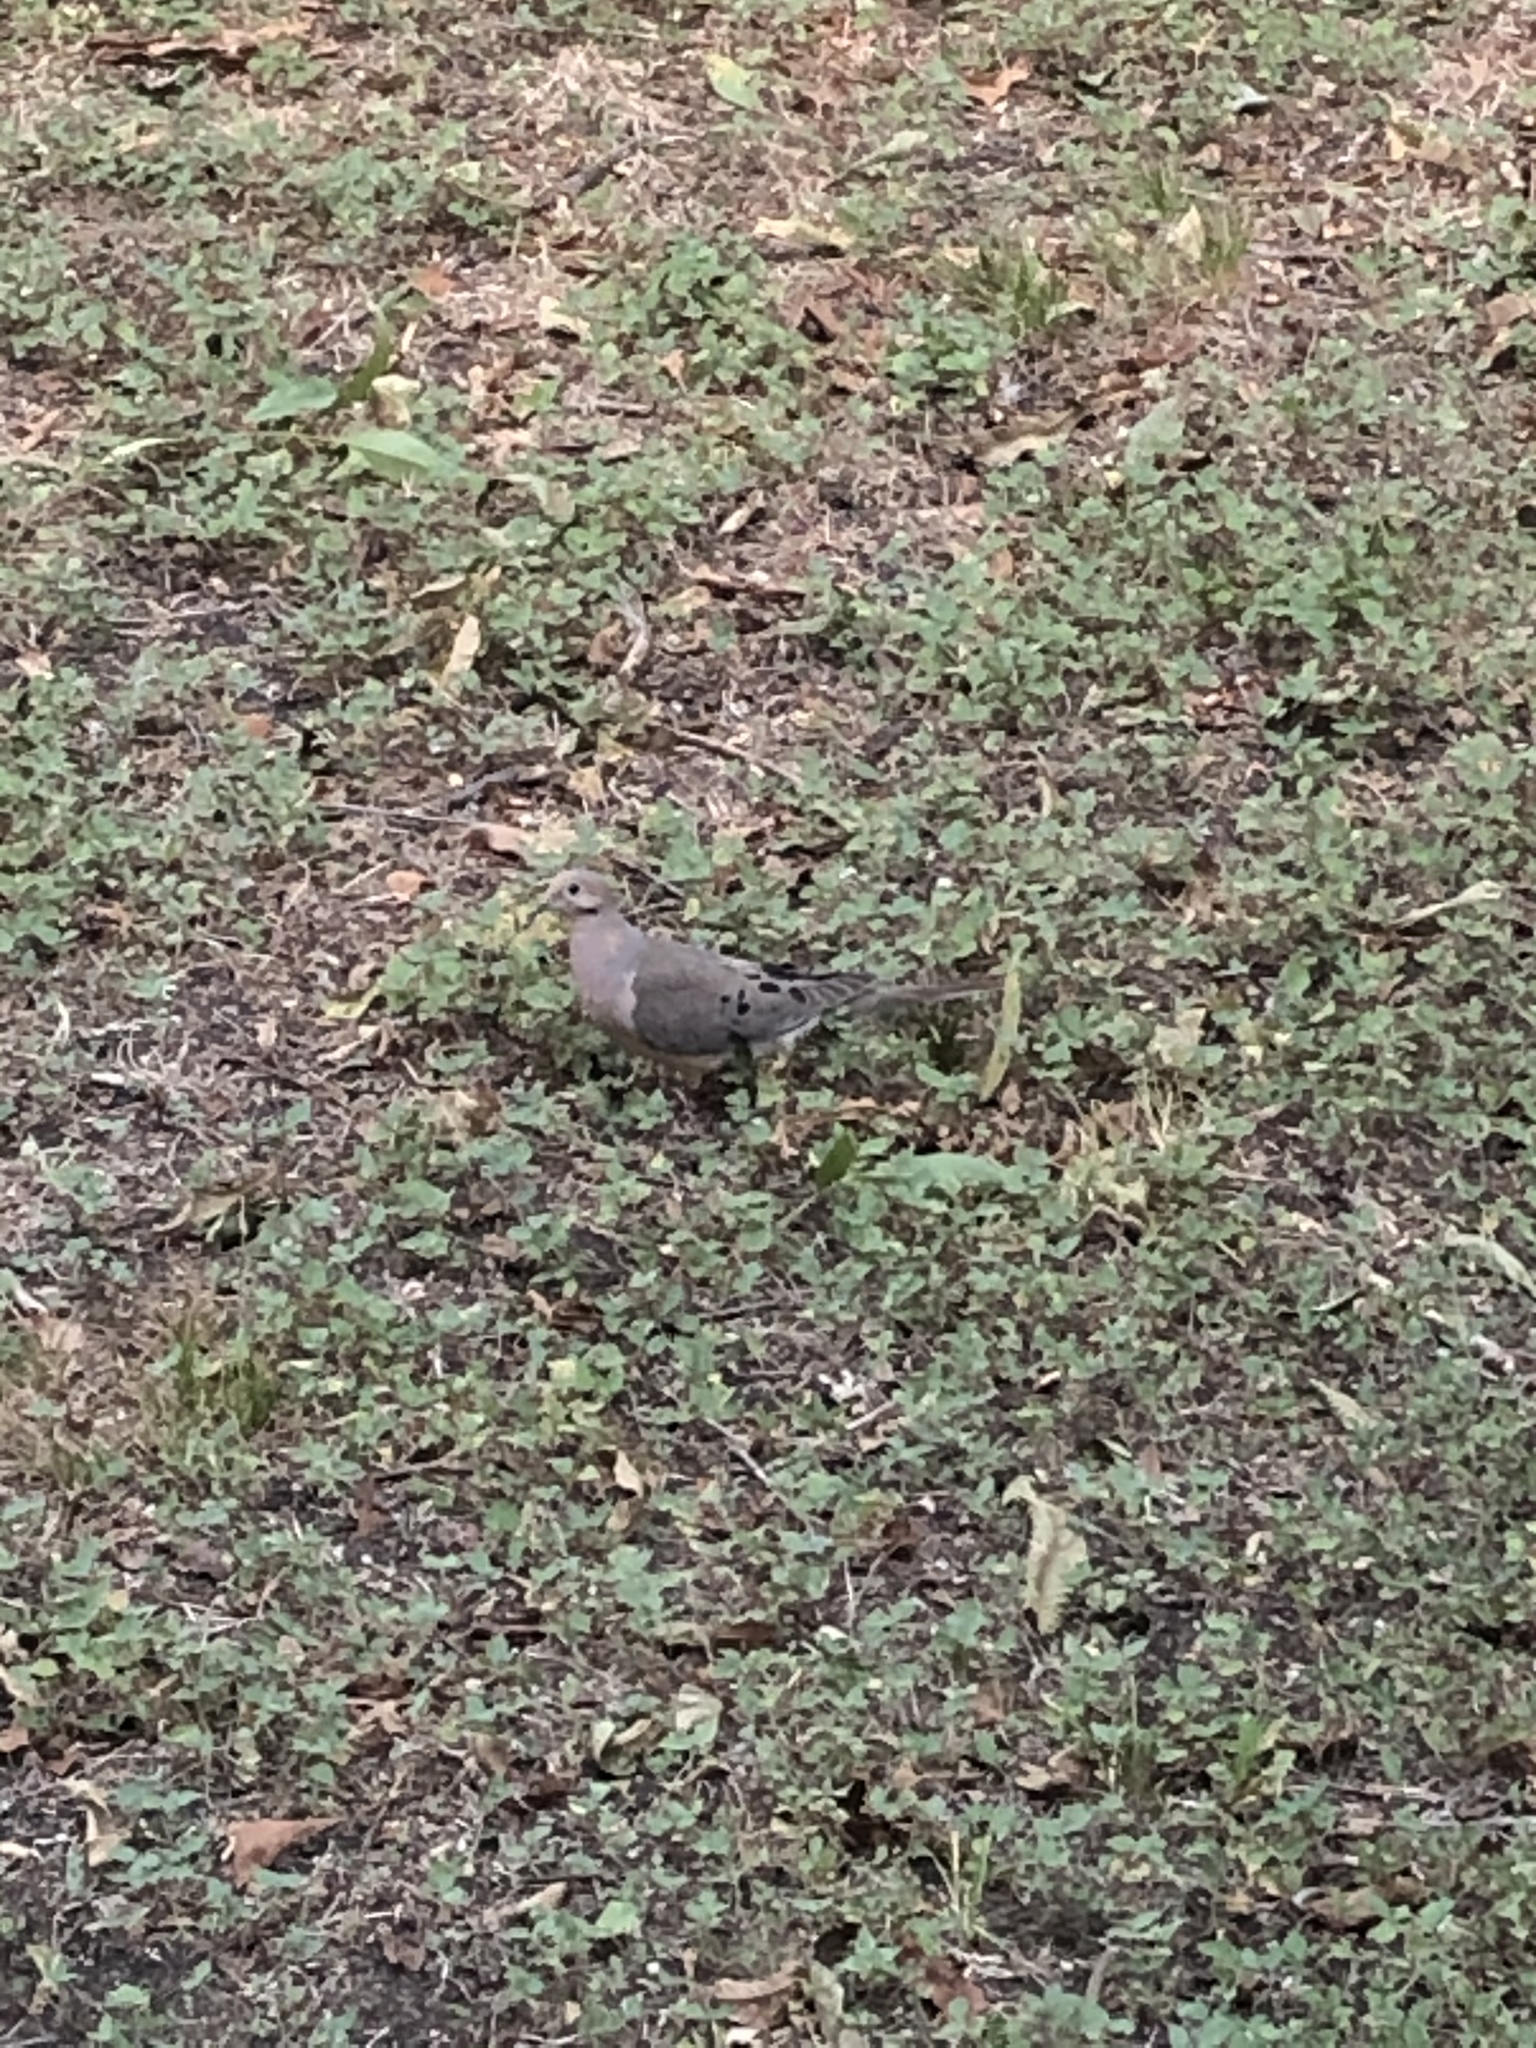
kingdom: Animalia
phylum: Chordata
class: Aves
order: Columbiformes
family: Columbidae
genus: Zenaida
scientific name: Zenaida macroura
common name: Mourning dove
